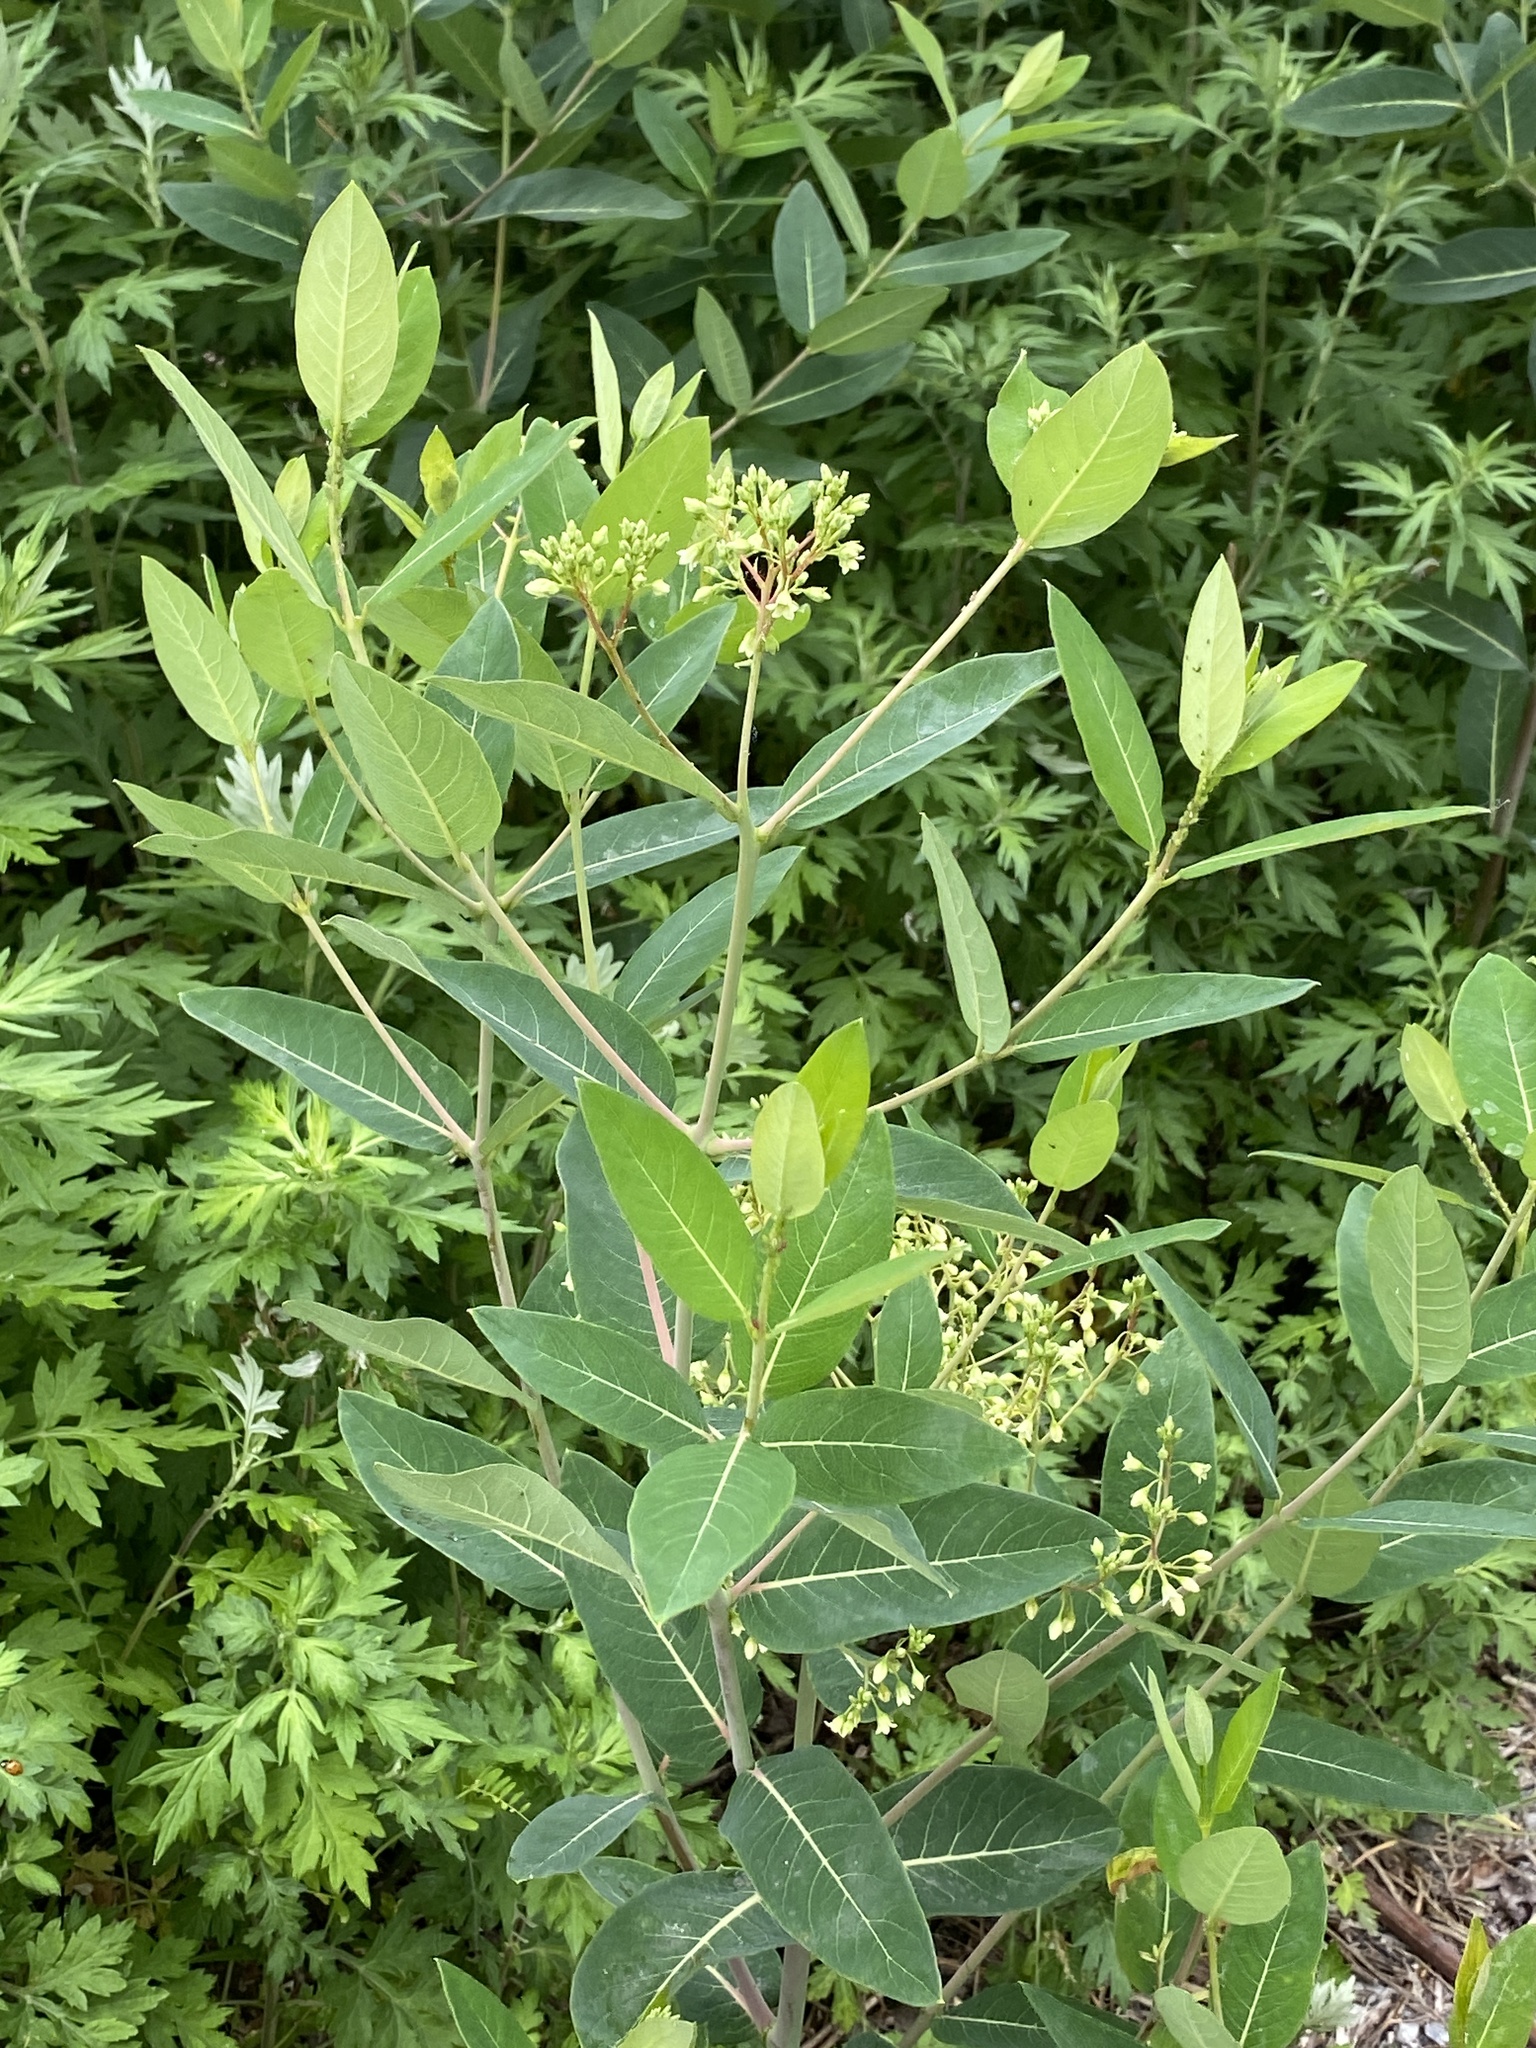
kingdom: Plantae
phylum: Tracheophyta
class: Magnoliopsida
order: Gentianales
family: Apocynaceae
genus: Apocynum
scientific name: Apocynum cannabinum
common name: Hemp dogbane
